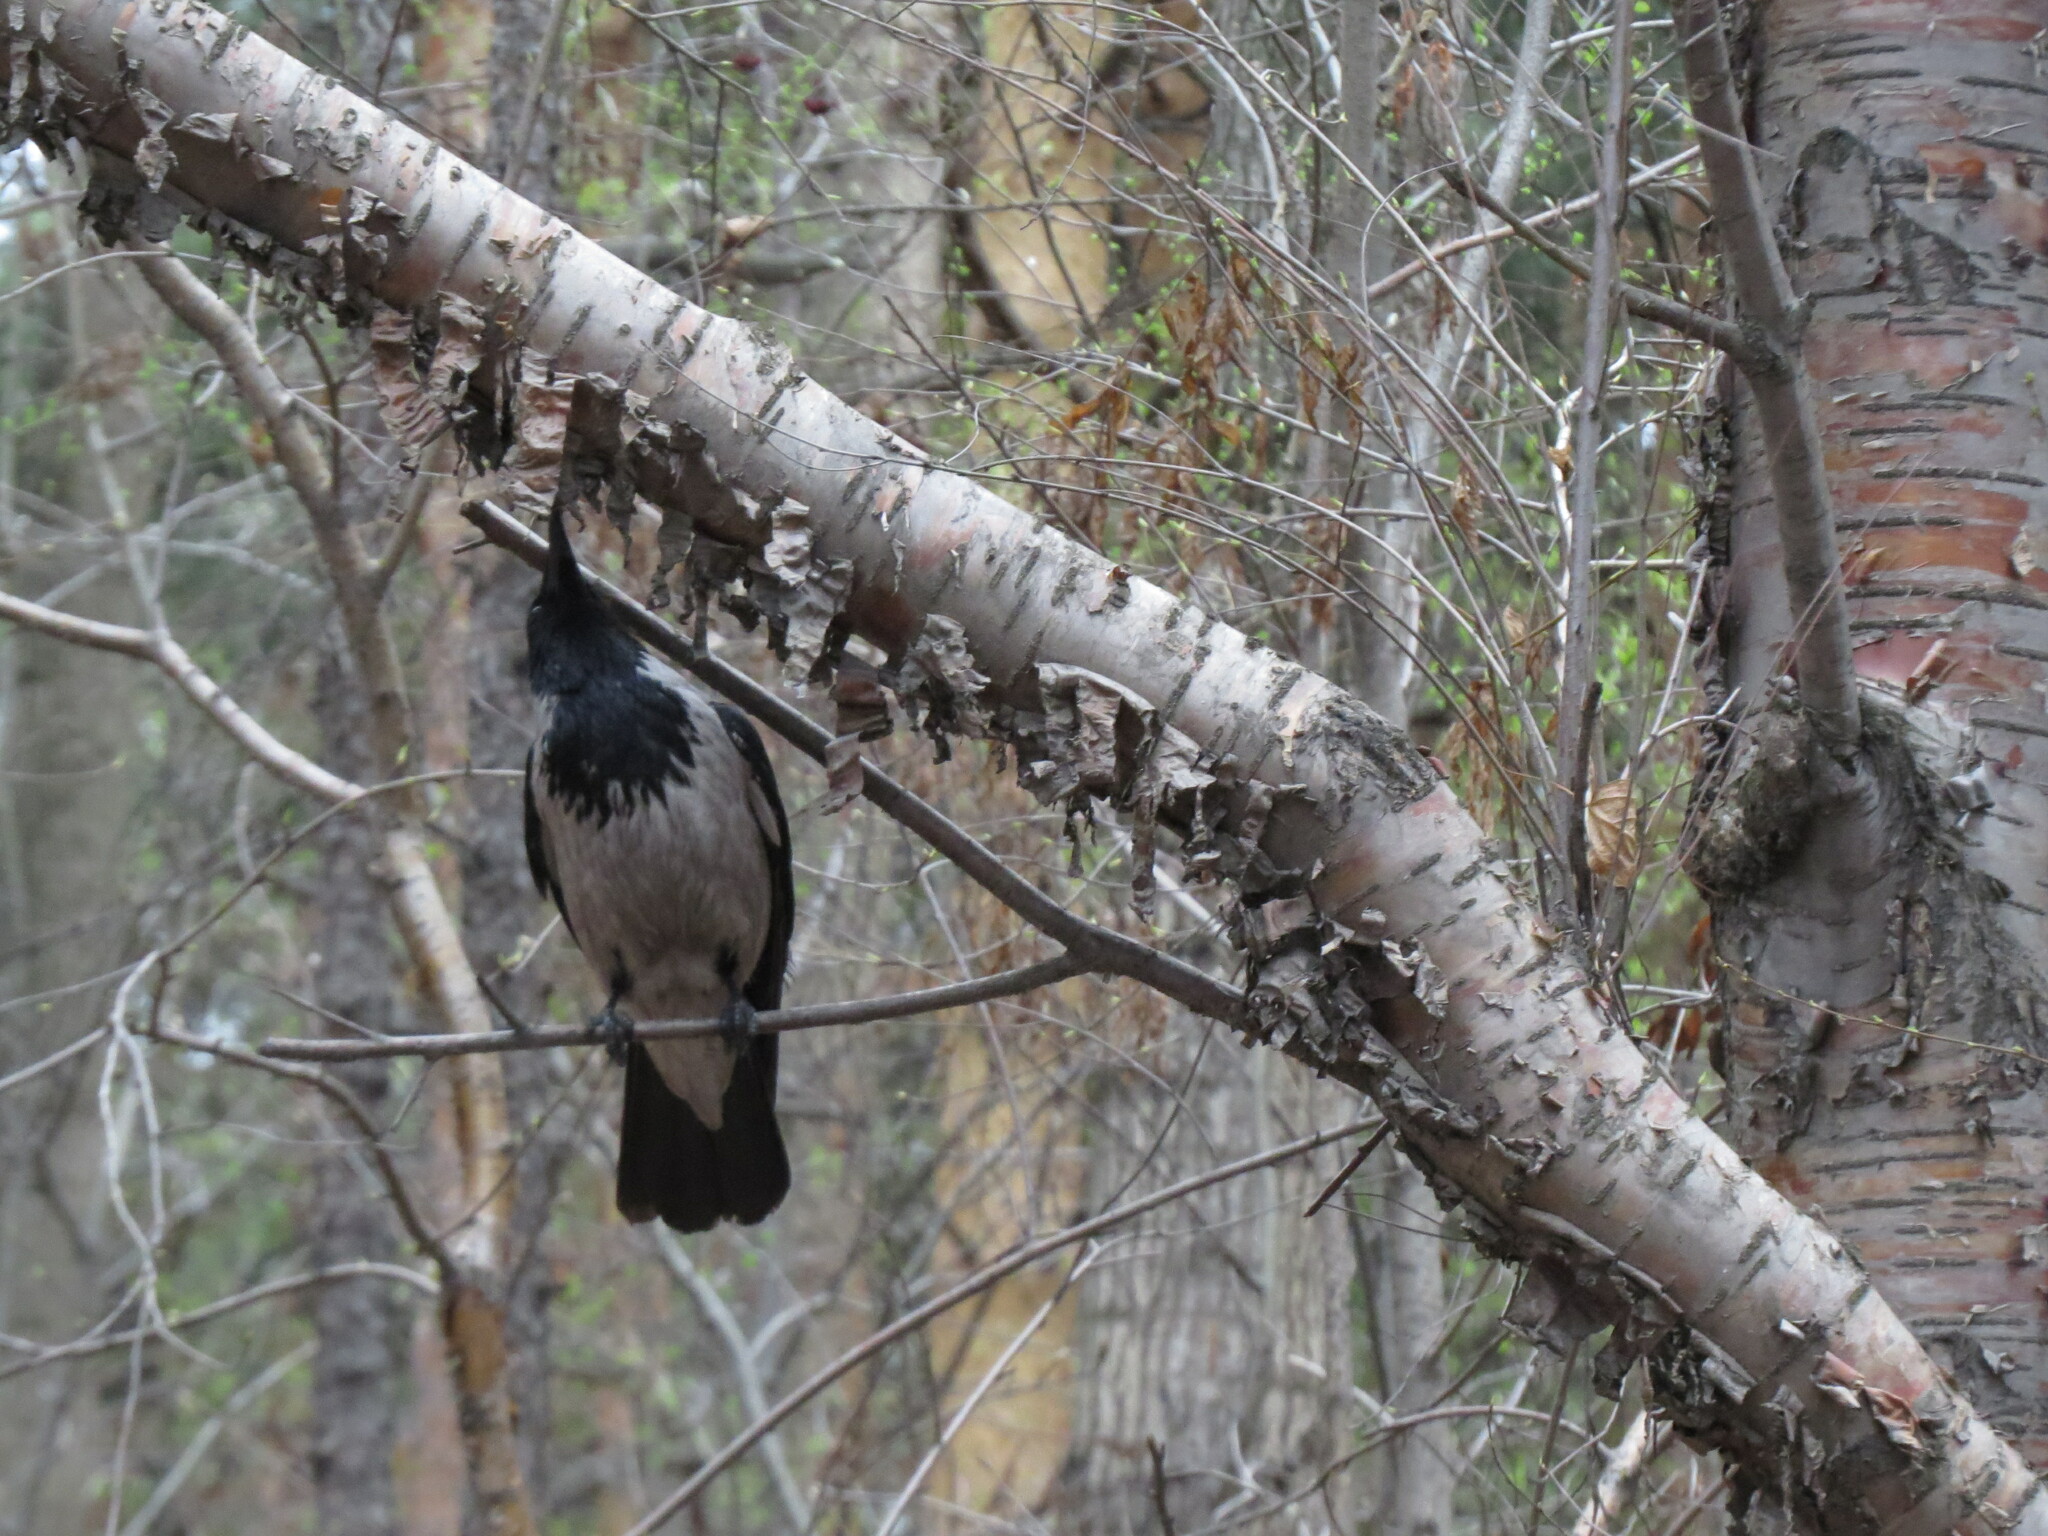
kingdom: Animalia
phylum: Chordata
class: Aves
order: Passeriformes
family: Corvidae
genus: Corvus
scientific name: Corvus cornix
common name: Hooded crow
